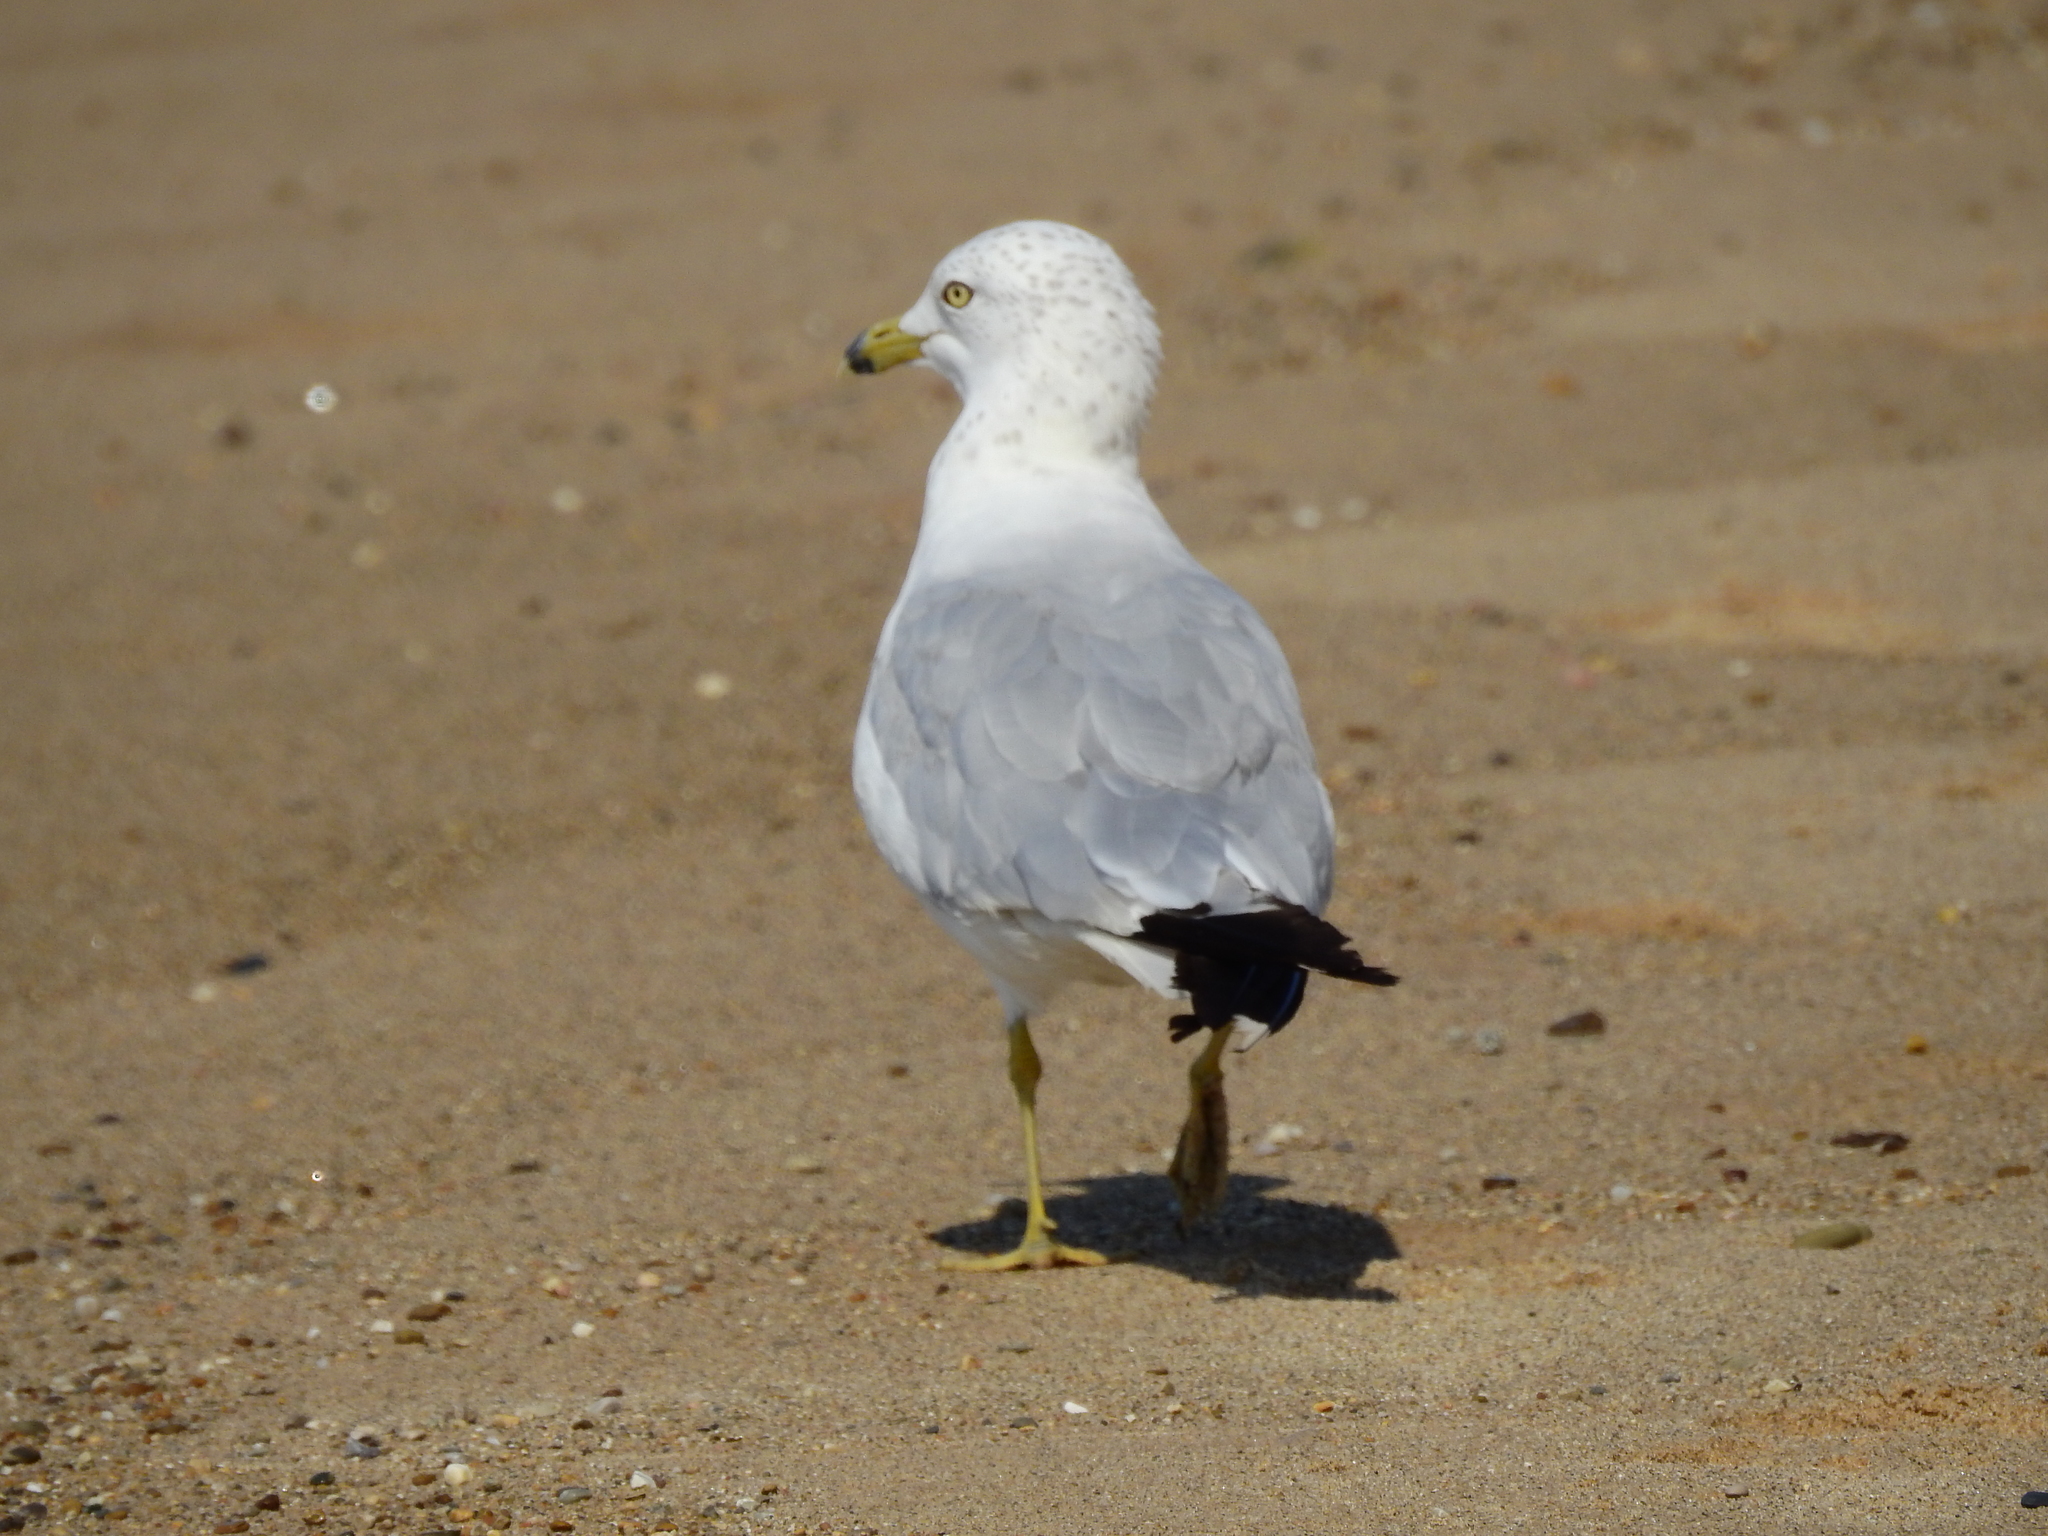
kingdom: Animalia
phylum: Chordata
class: Aves
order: Charadriiformes
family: Laridae
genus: Larus
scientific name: Larus delawarensis
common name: Ring-billed gull
